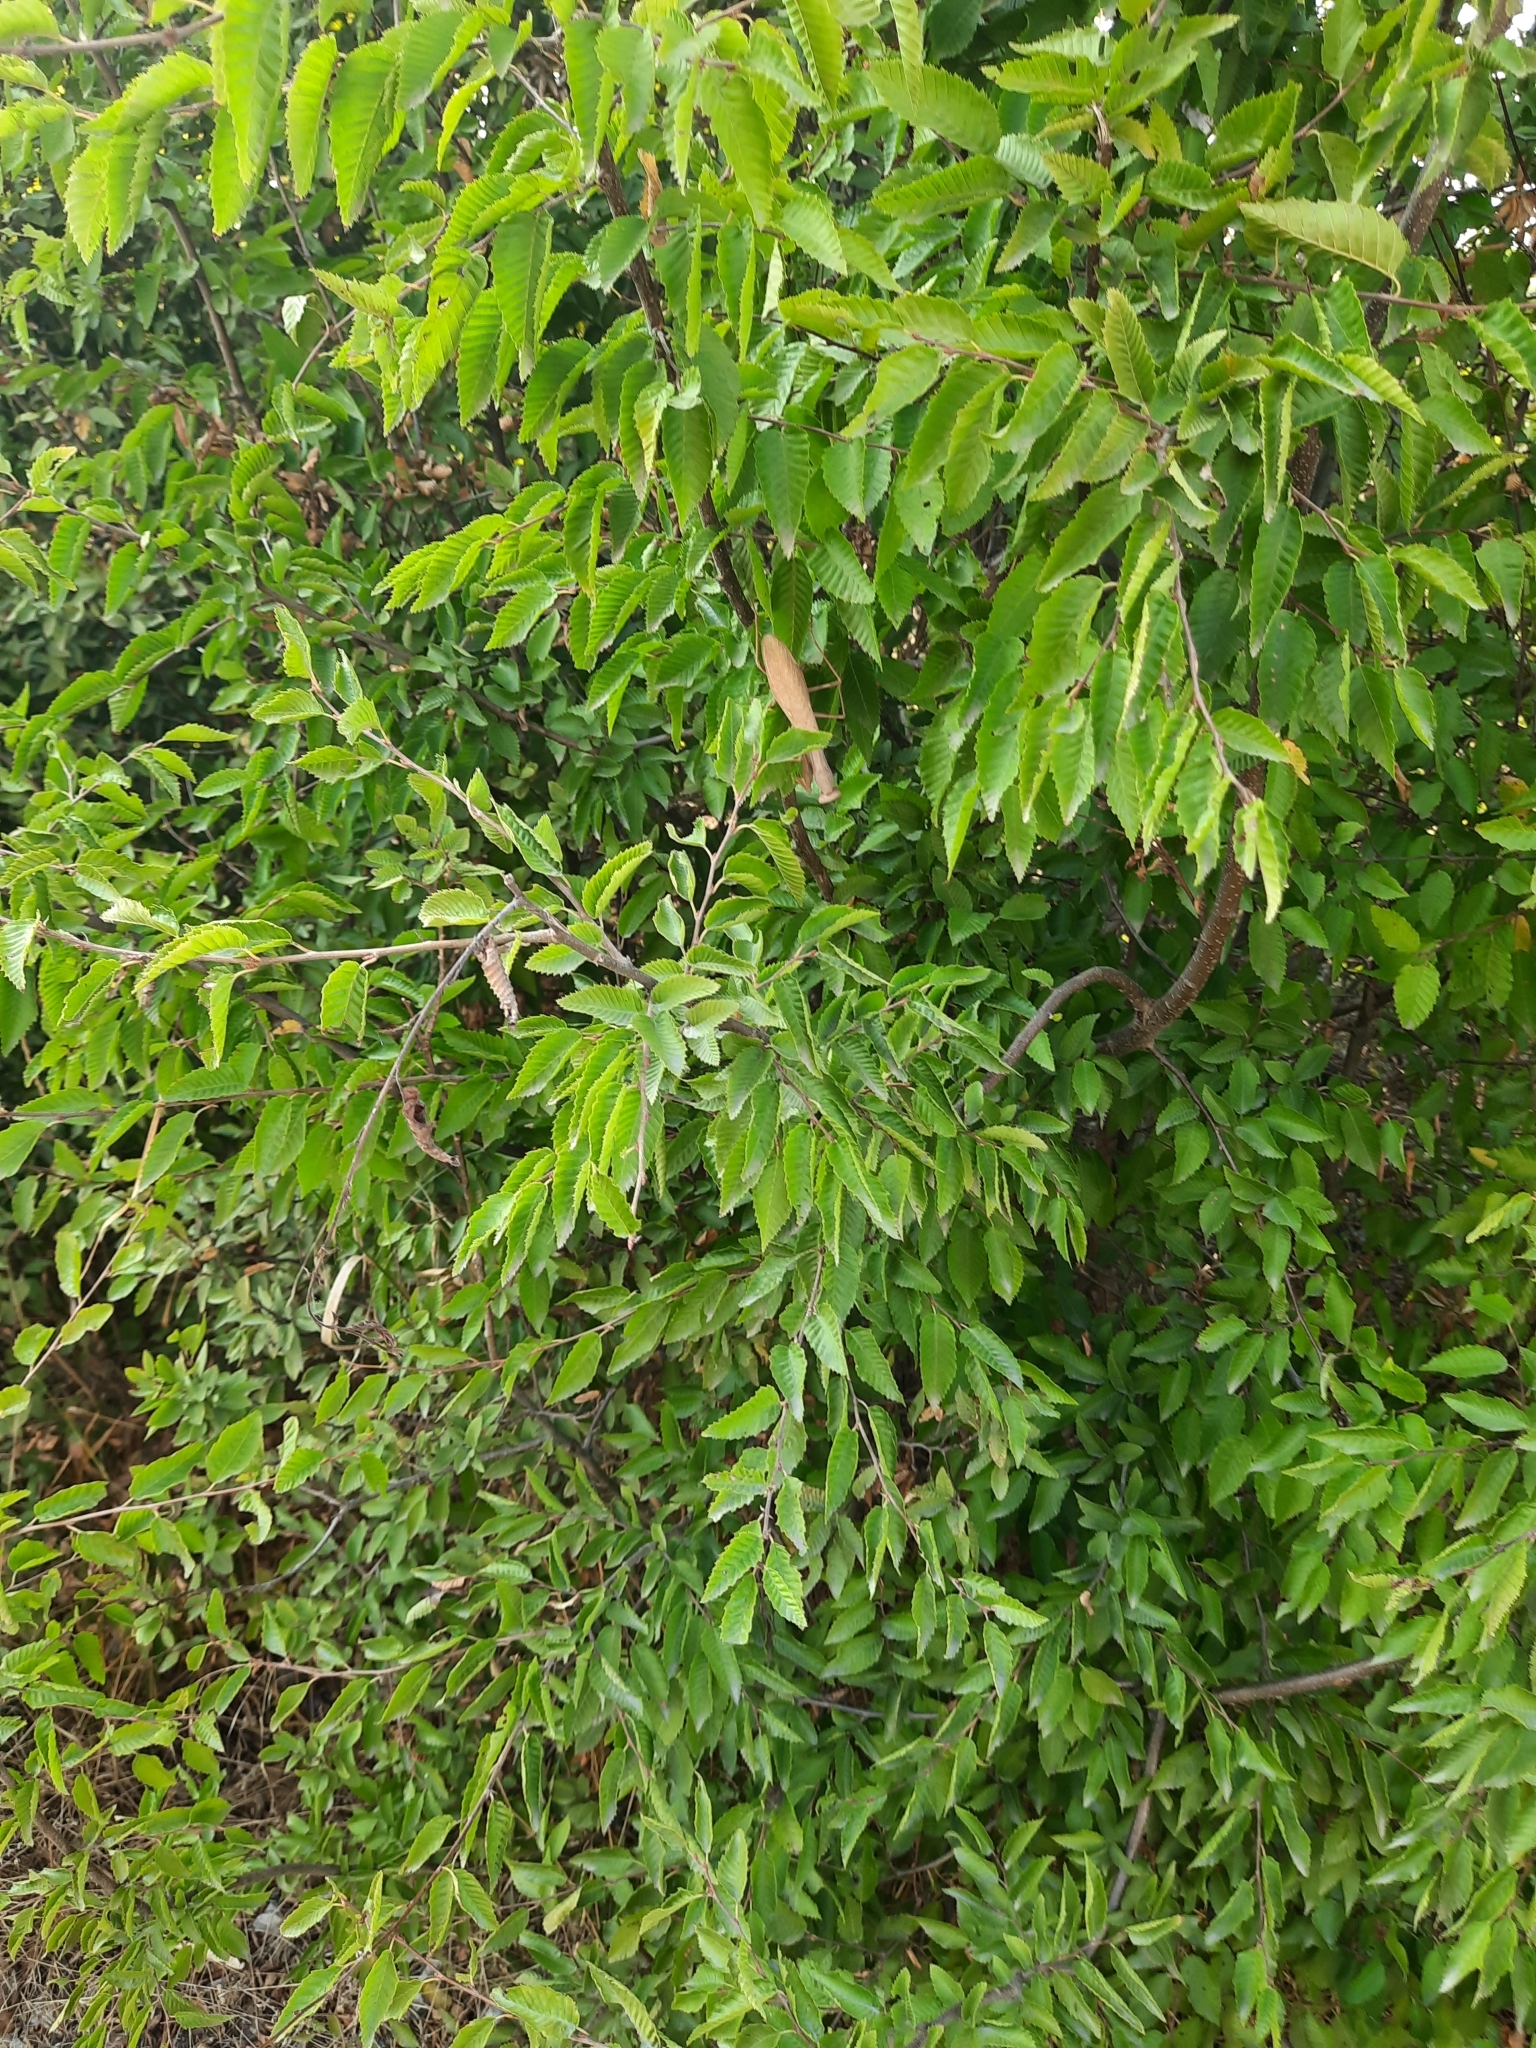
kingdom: Plantae
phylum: Tracheophyta
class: Magnoliopsida
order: Fagales
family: Betulaceae
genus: Carpinus
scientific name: Carpinus orientalis
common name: Eastern hornbeam
